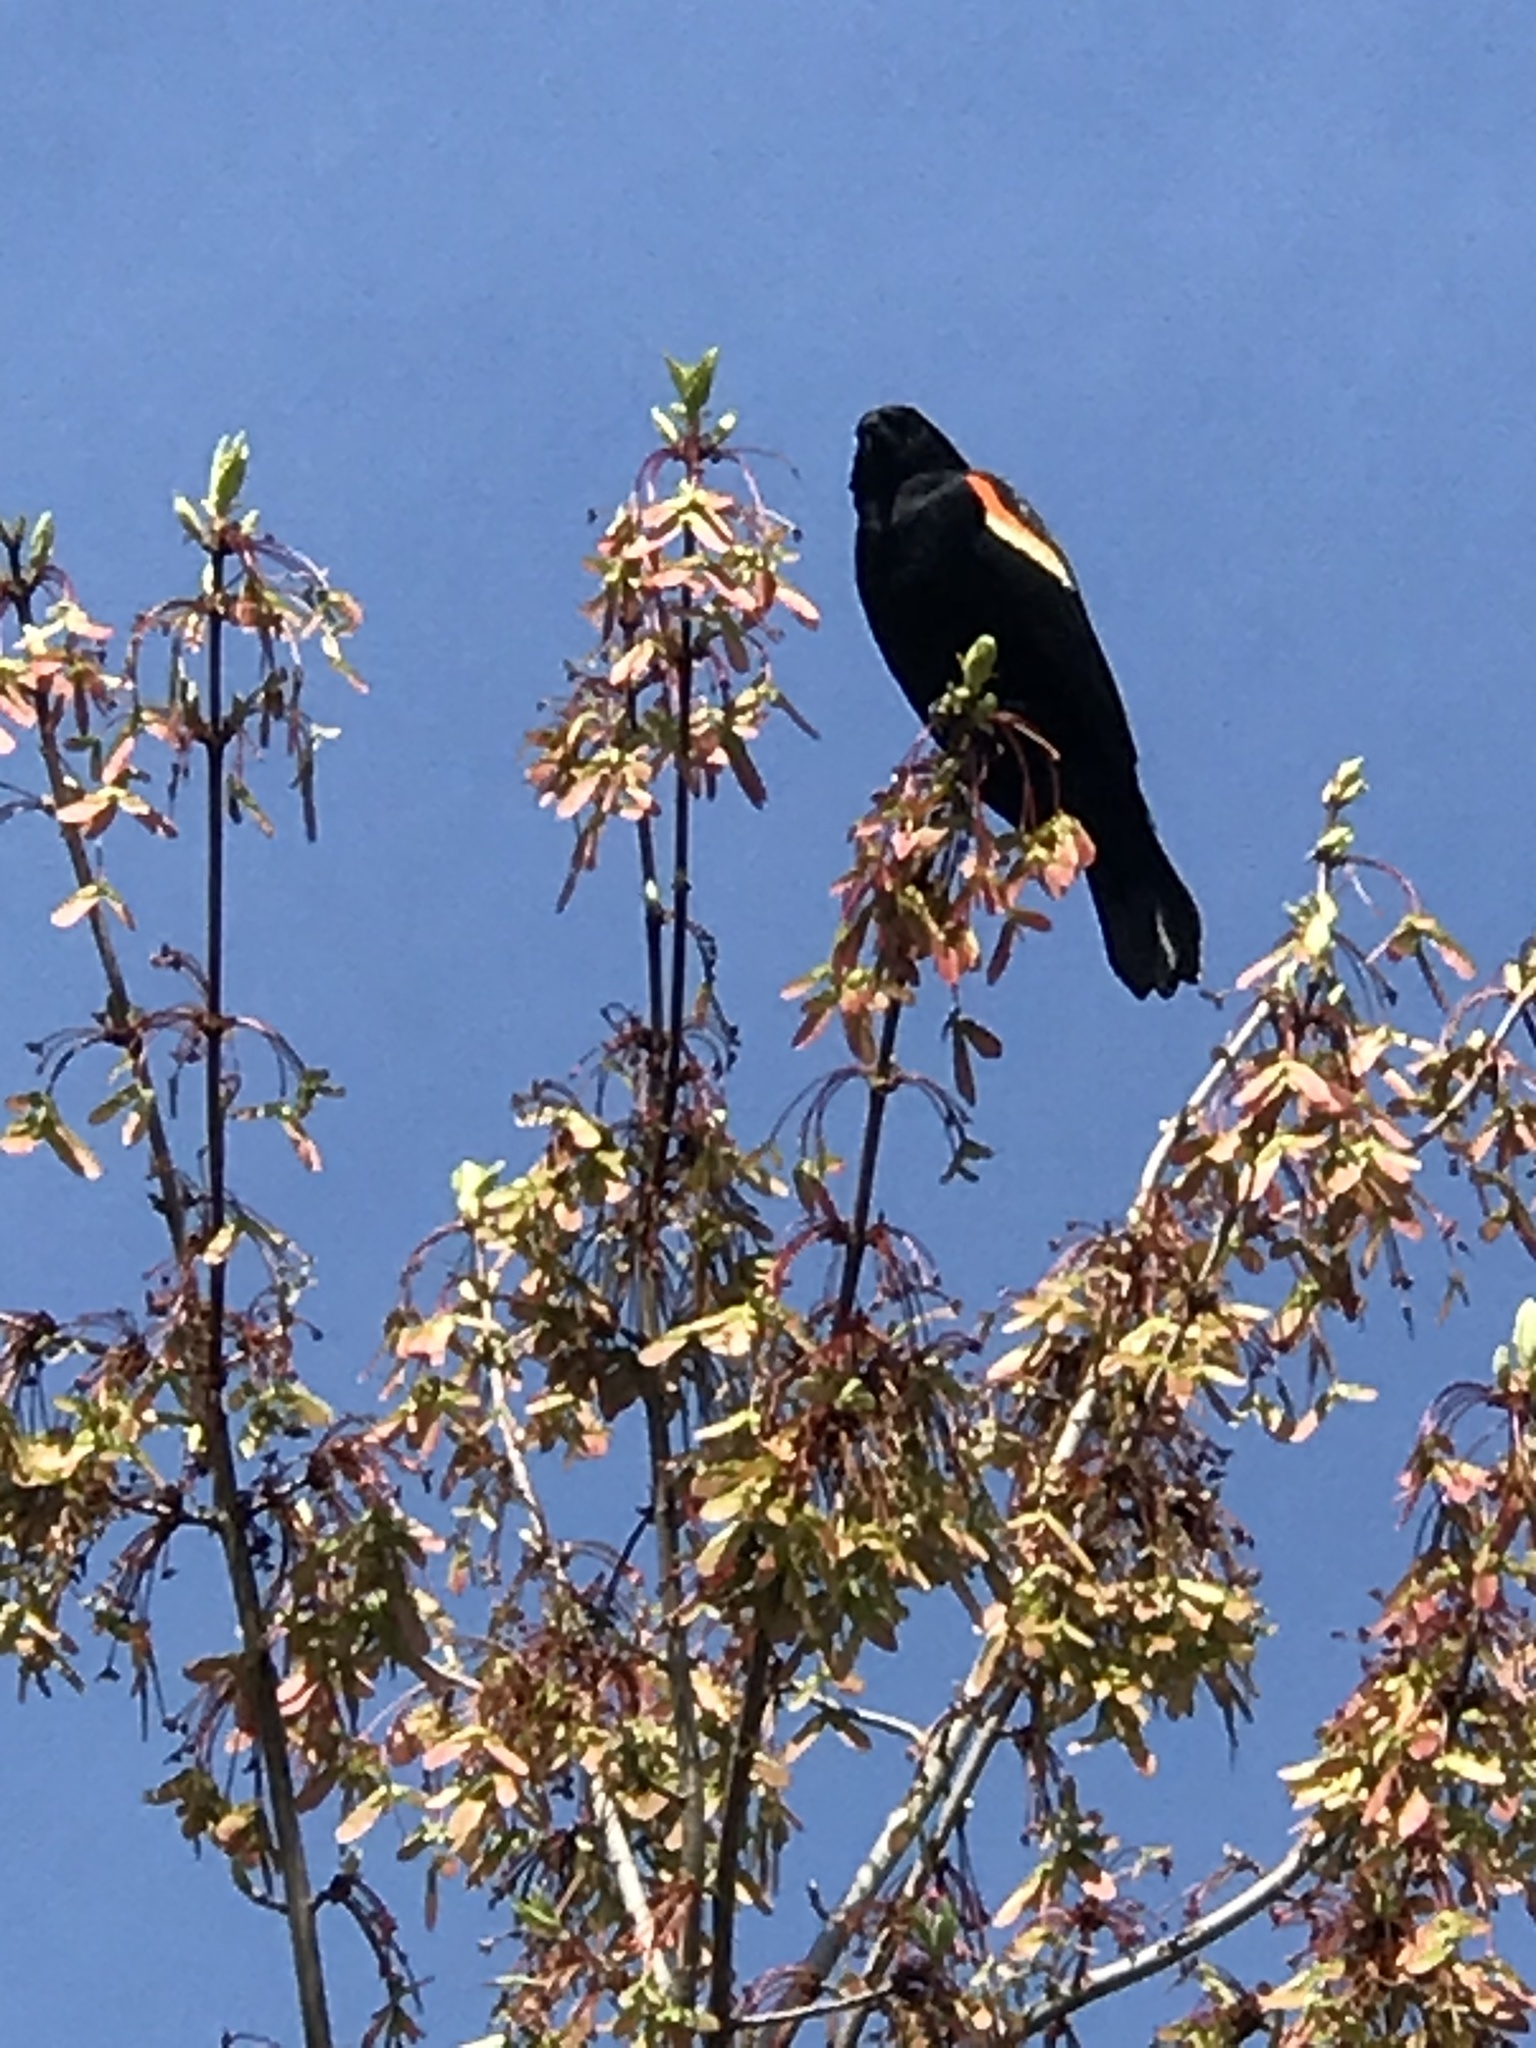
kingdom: Animalia
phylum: Chordata
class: Aves
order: Passeriformes
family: Icteridae
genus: Agelaius
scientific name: Agelaius phoeniceus
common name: Red-winged blackbird
